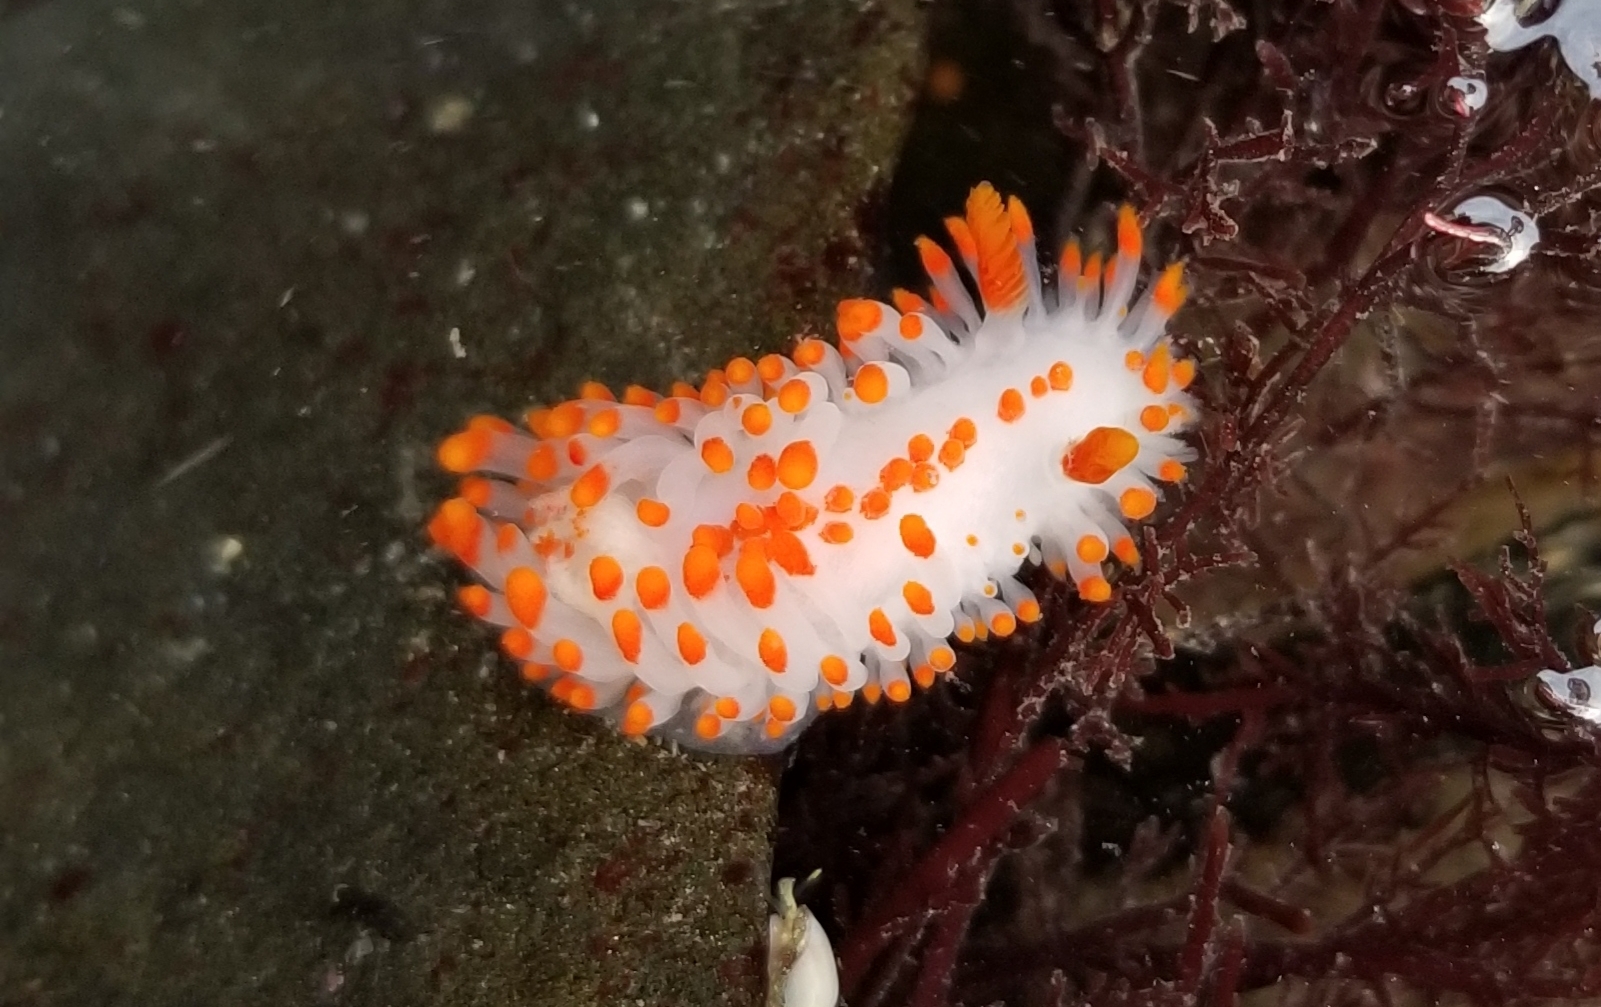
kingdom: Animalia
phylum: Mollusca
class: Gastropoda
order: Nudibranchia
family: Polyceridae
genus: Limacia
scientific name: Limacia mcdonaldi
